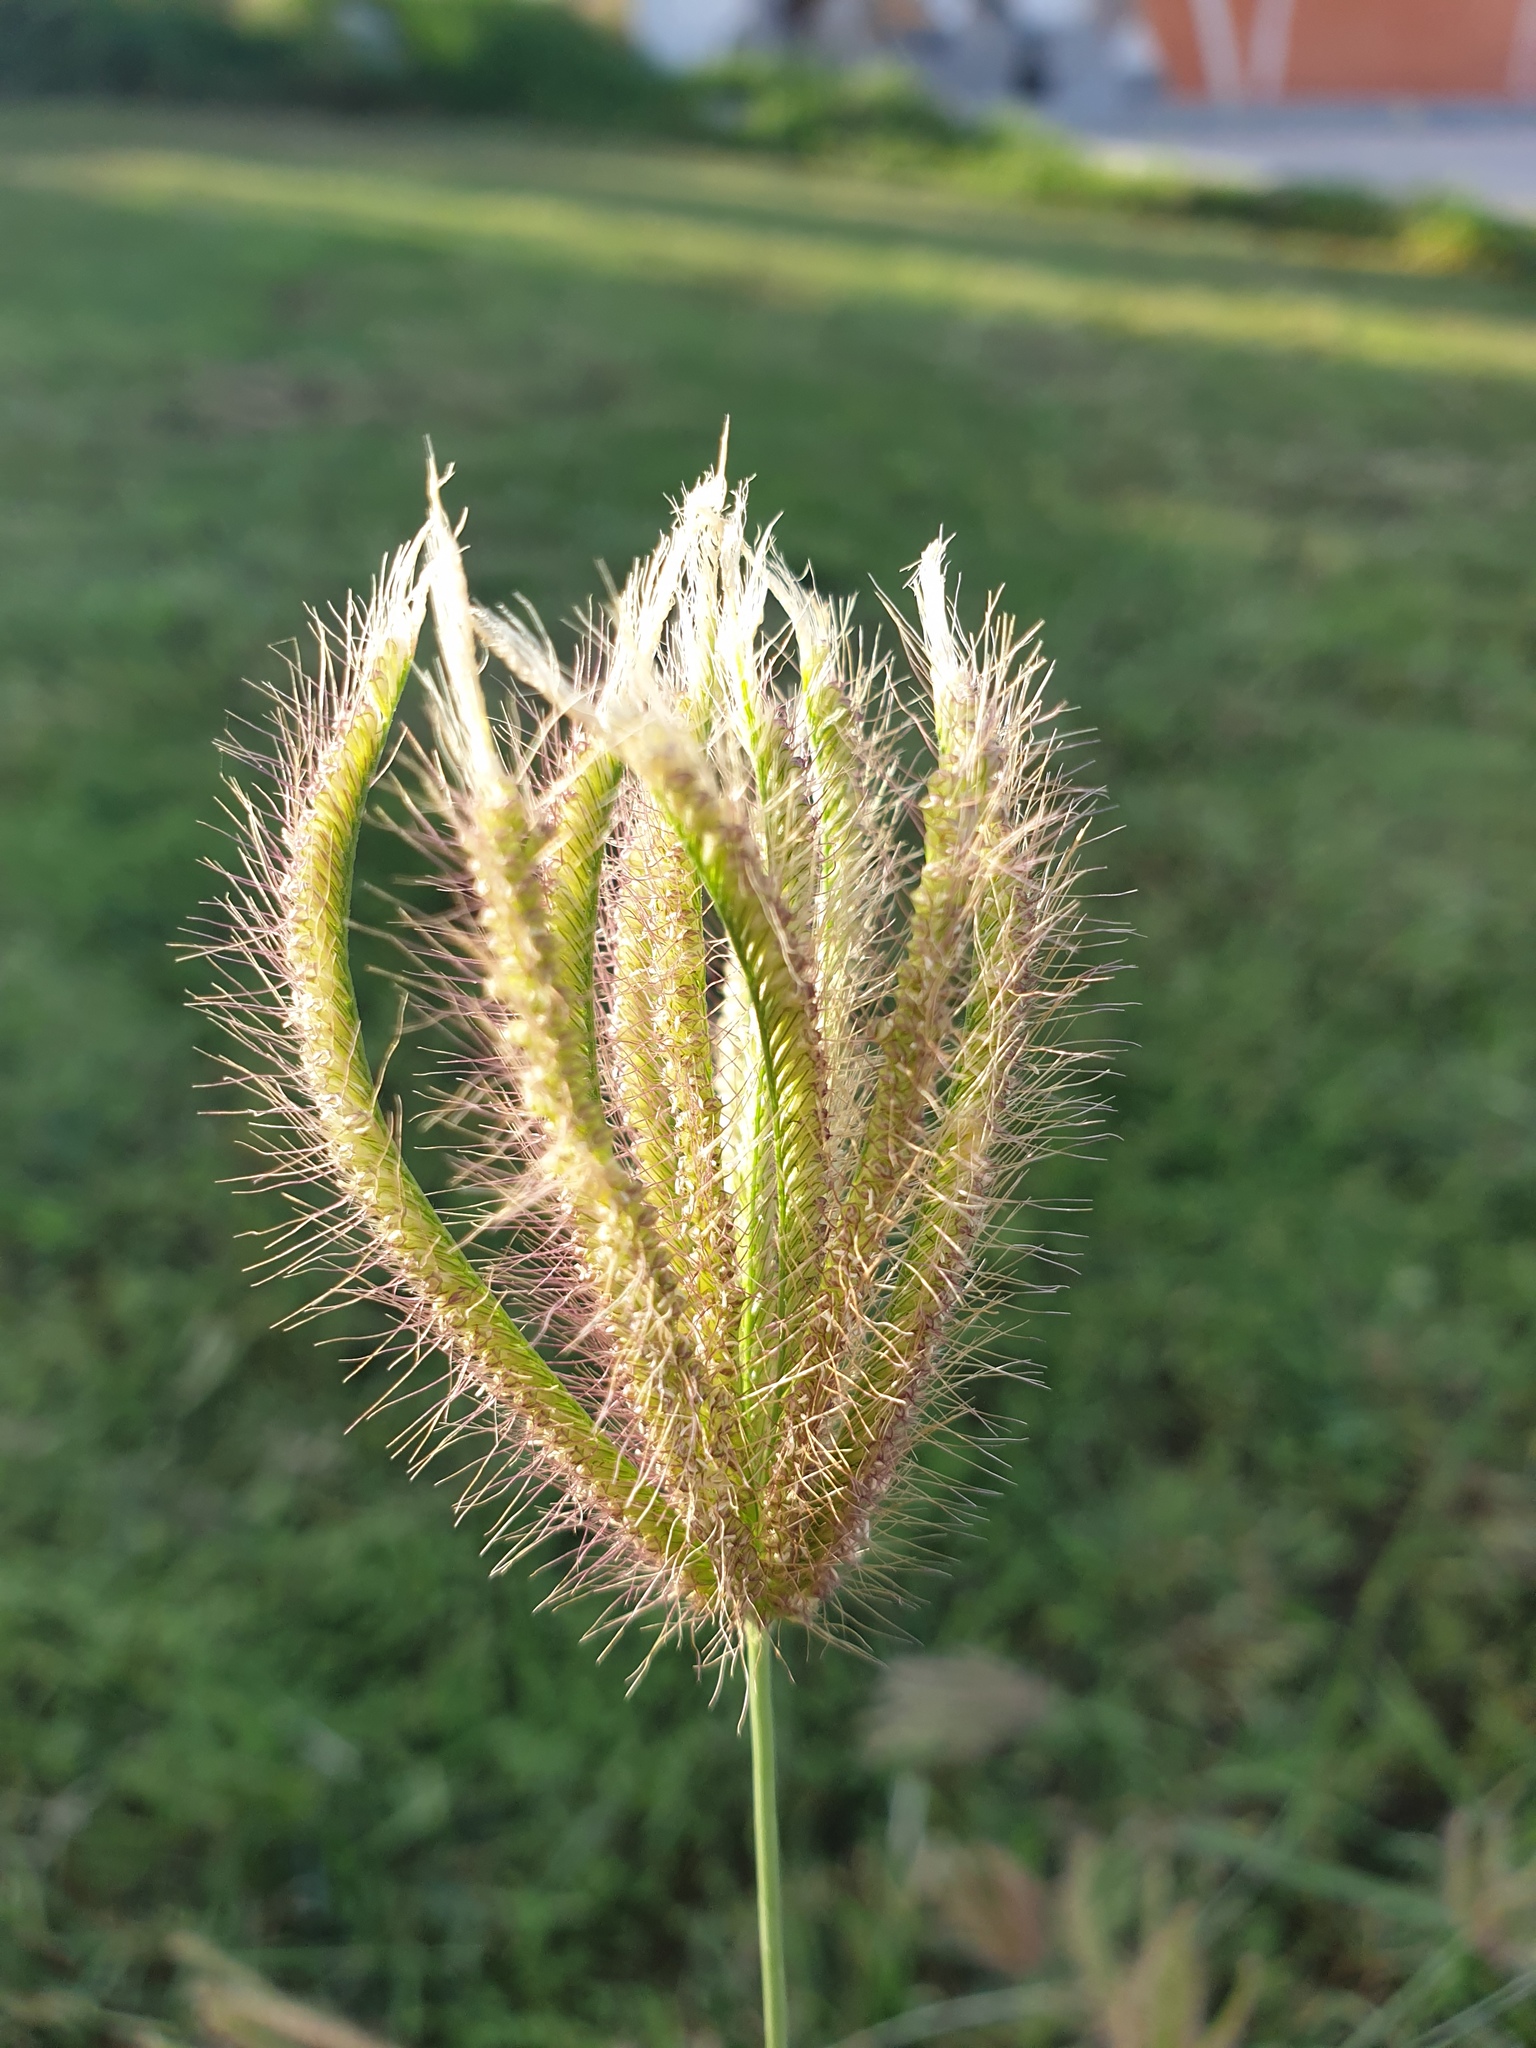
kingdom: Plantae
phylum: Tracheophyta
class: Liliopsida
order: Poales
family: Poaceae
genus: Chloris
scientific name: Chloris virgata
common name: Feathery rhodes-grass
